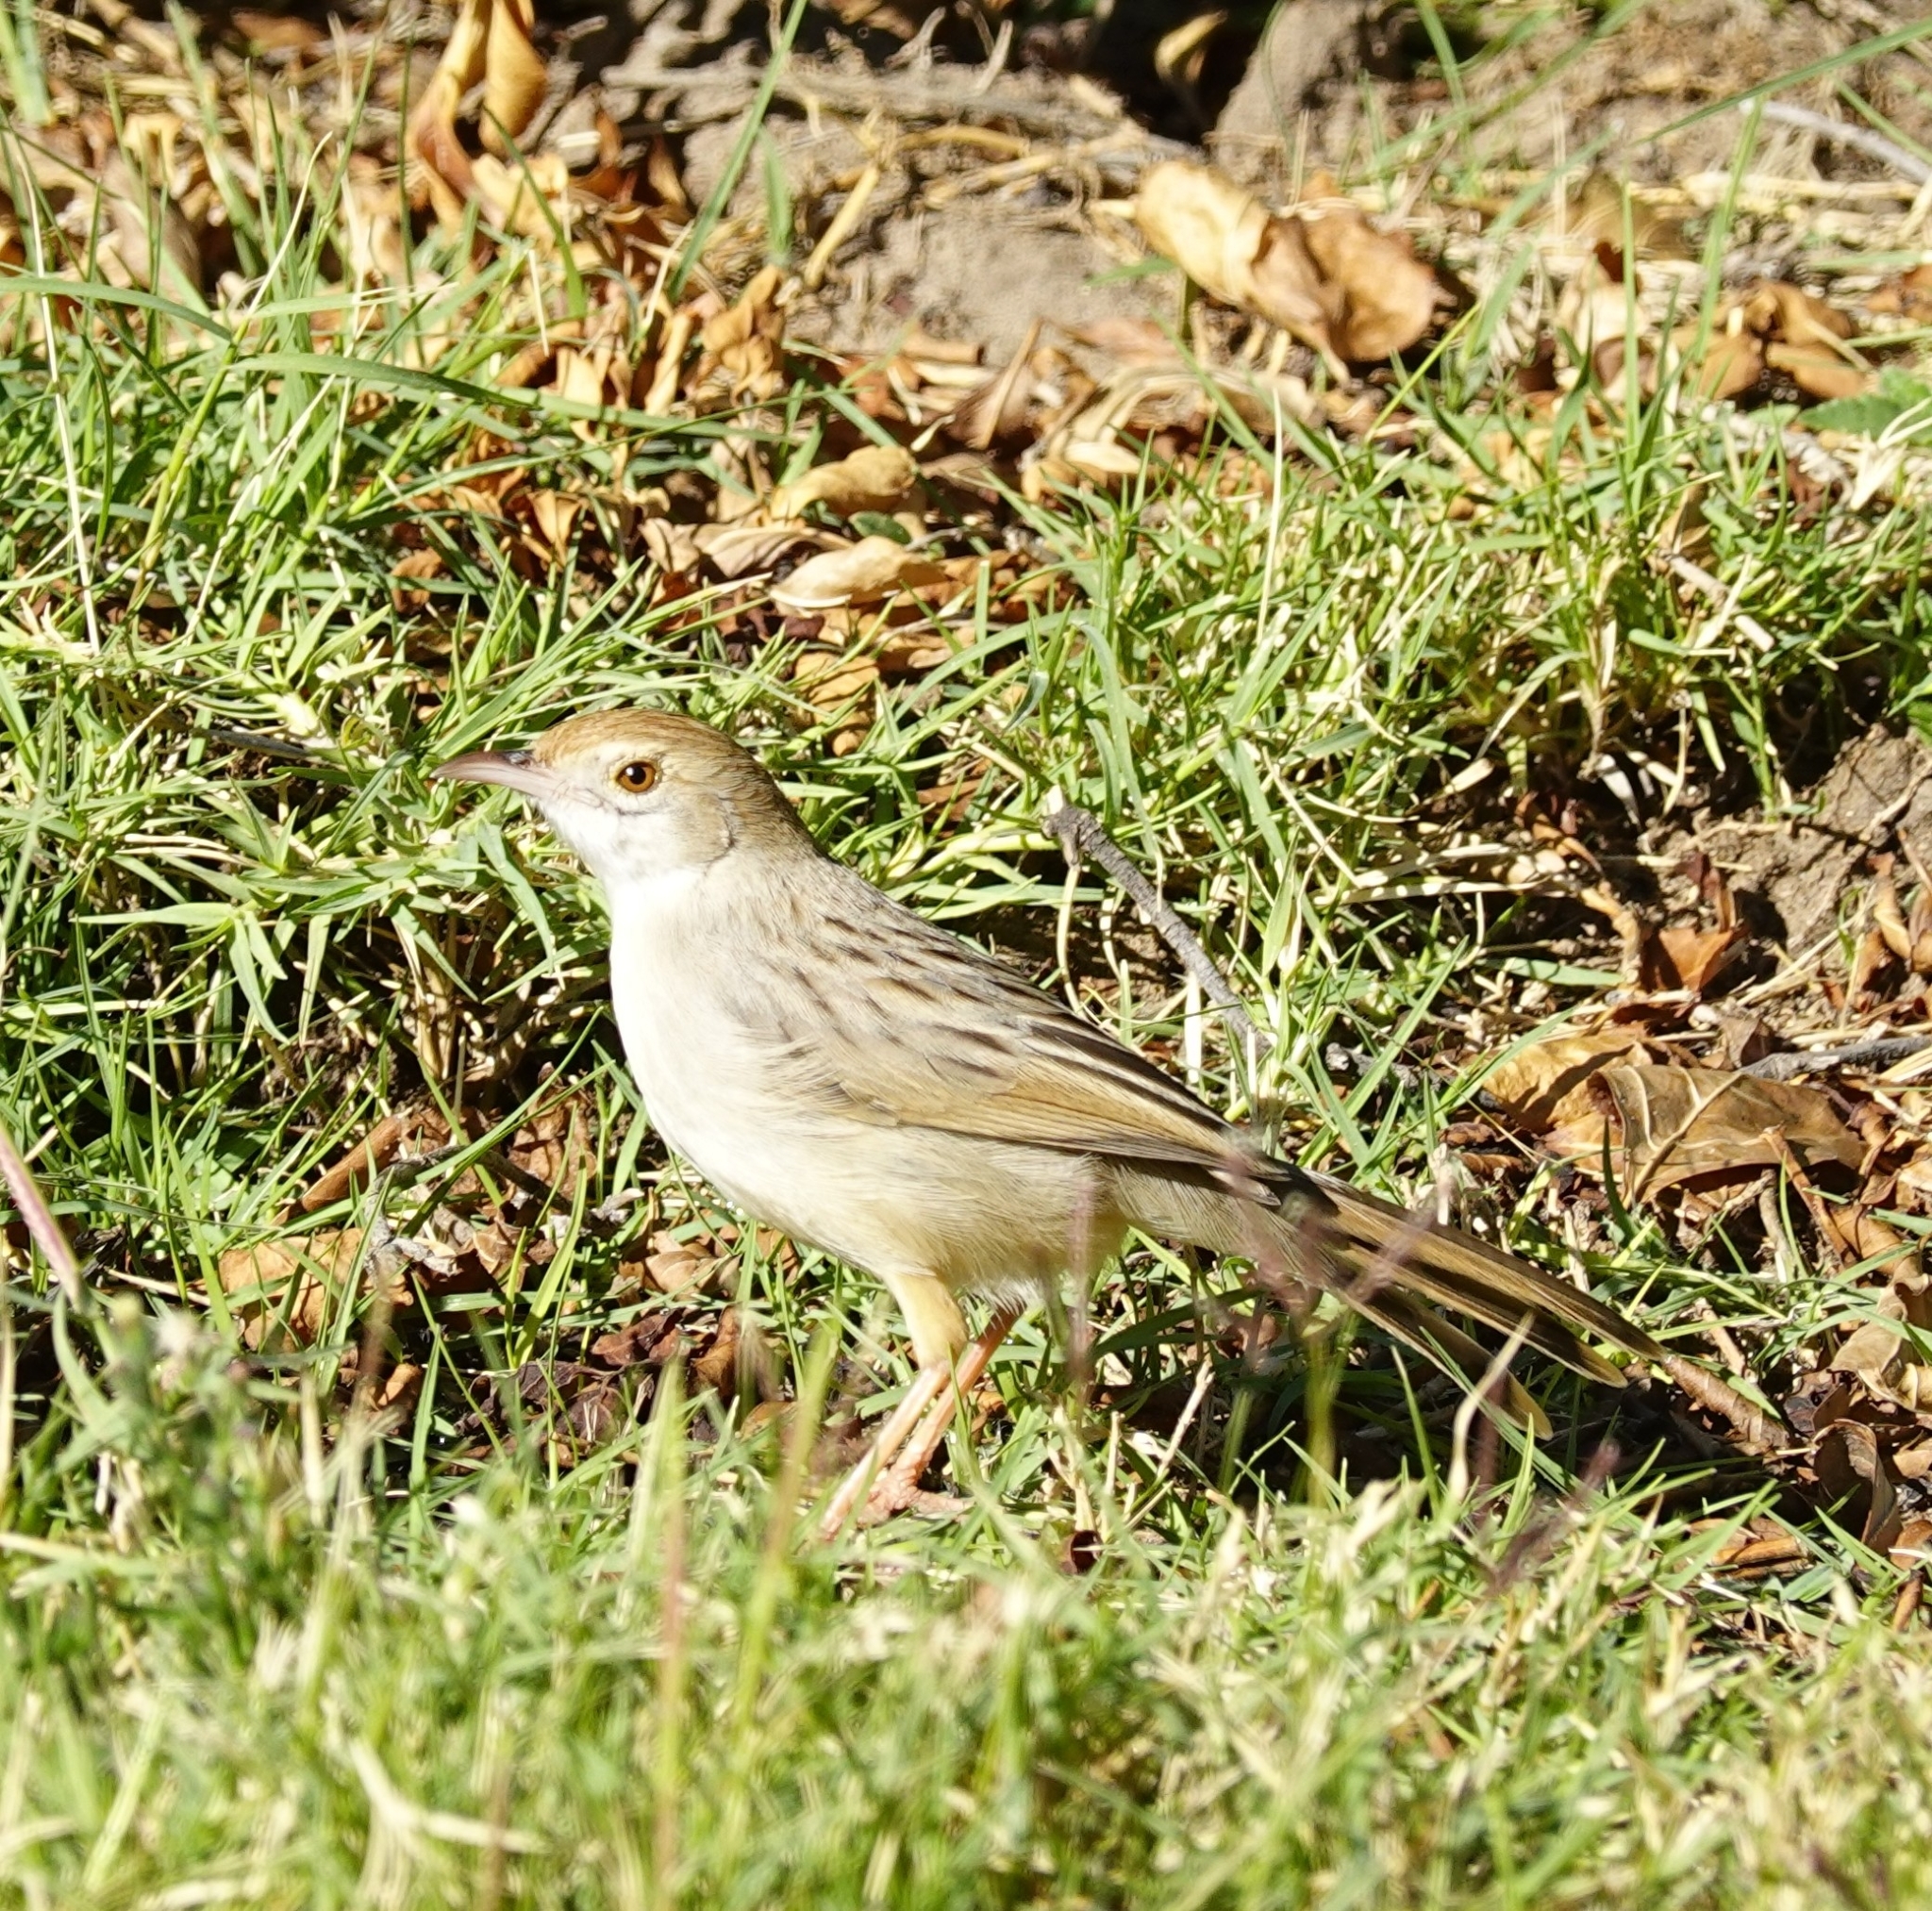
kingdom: Animalia
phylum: Chordata
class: Aves
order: Passeriformes
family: Cisticolidae
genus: Cisticola
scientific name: Cisticola chiniana
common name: Rattling cisticola
